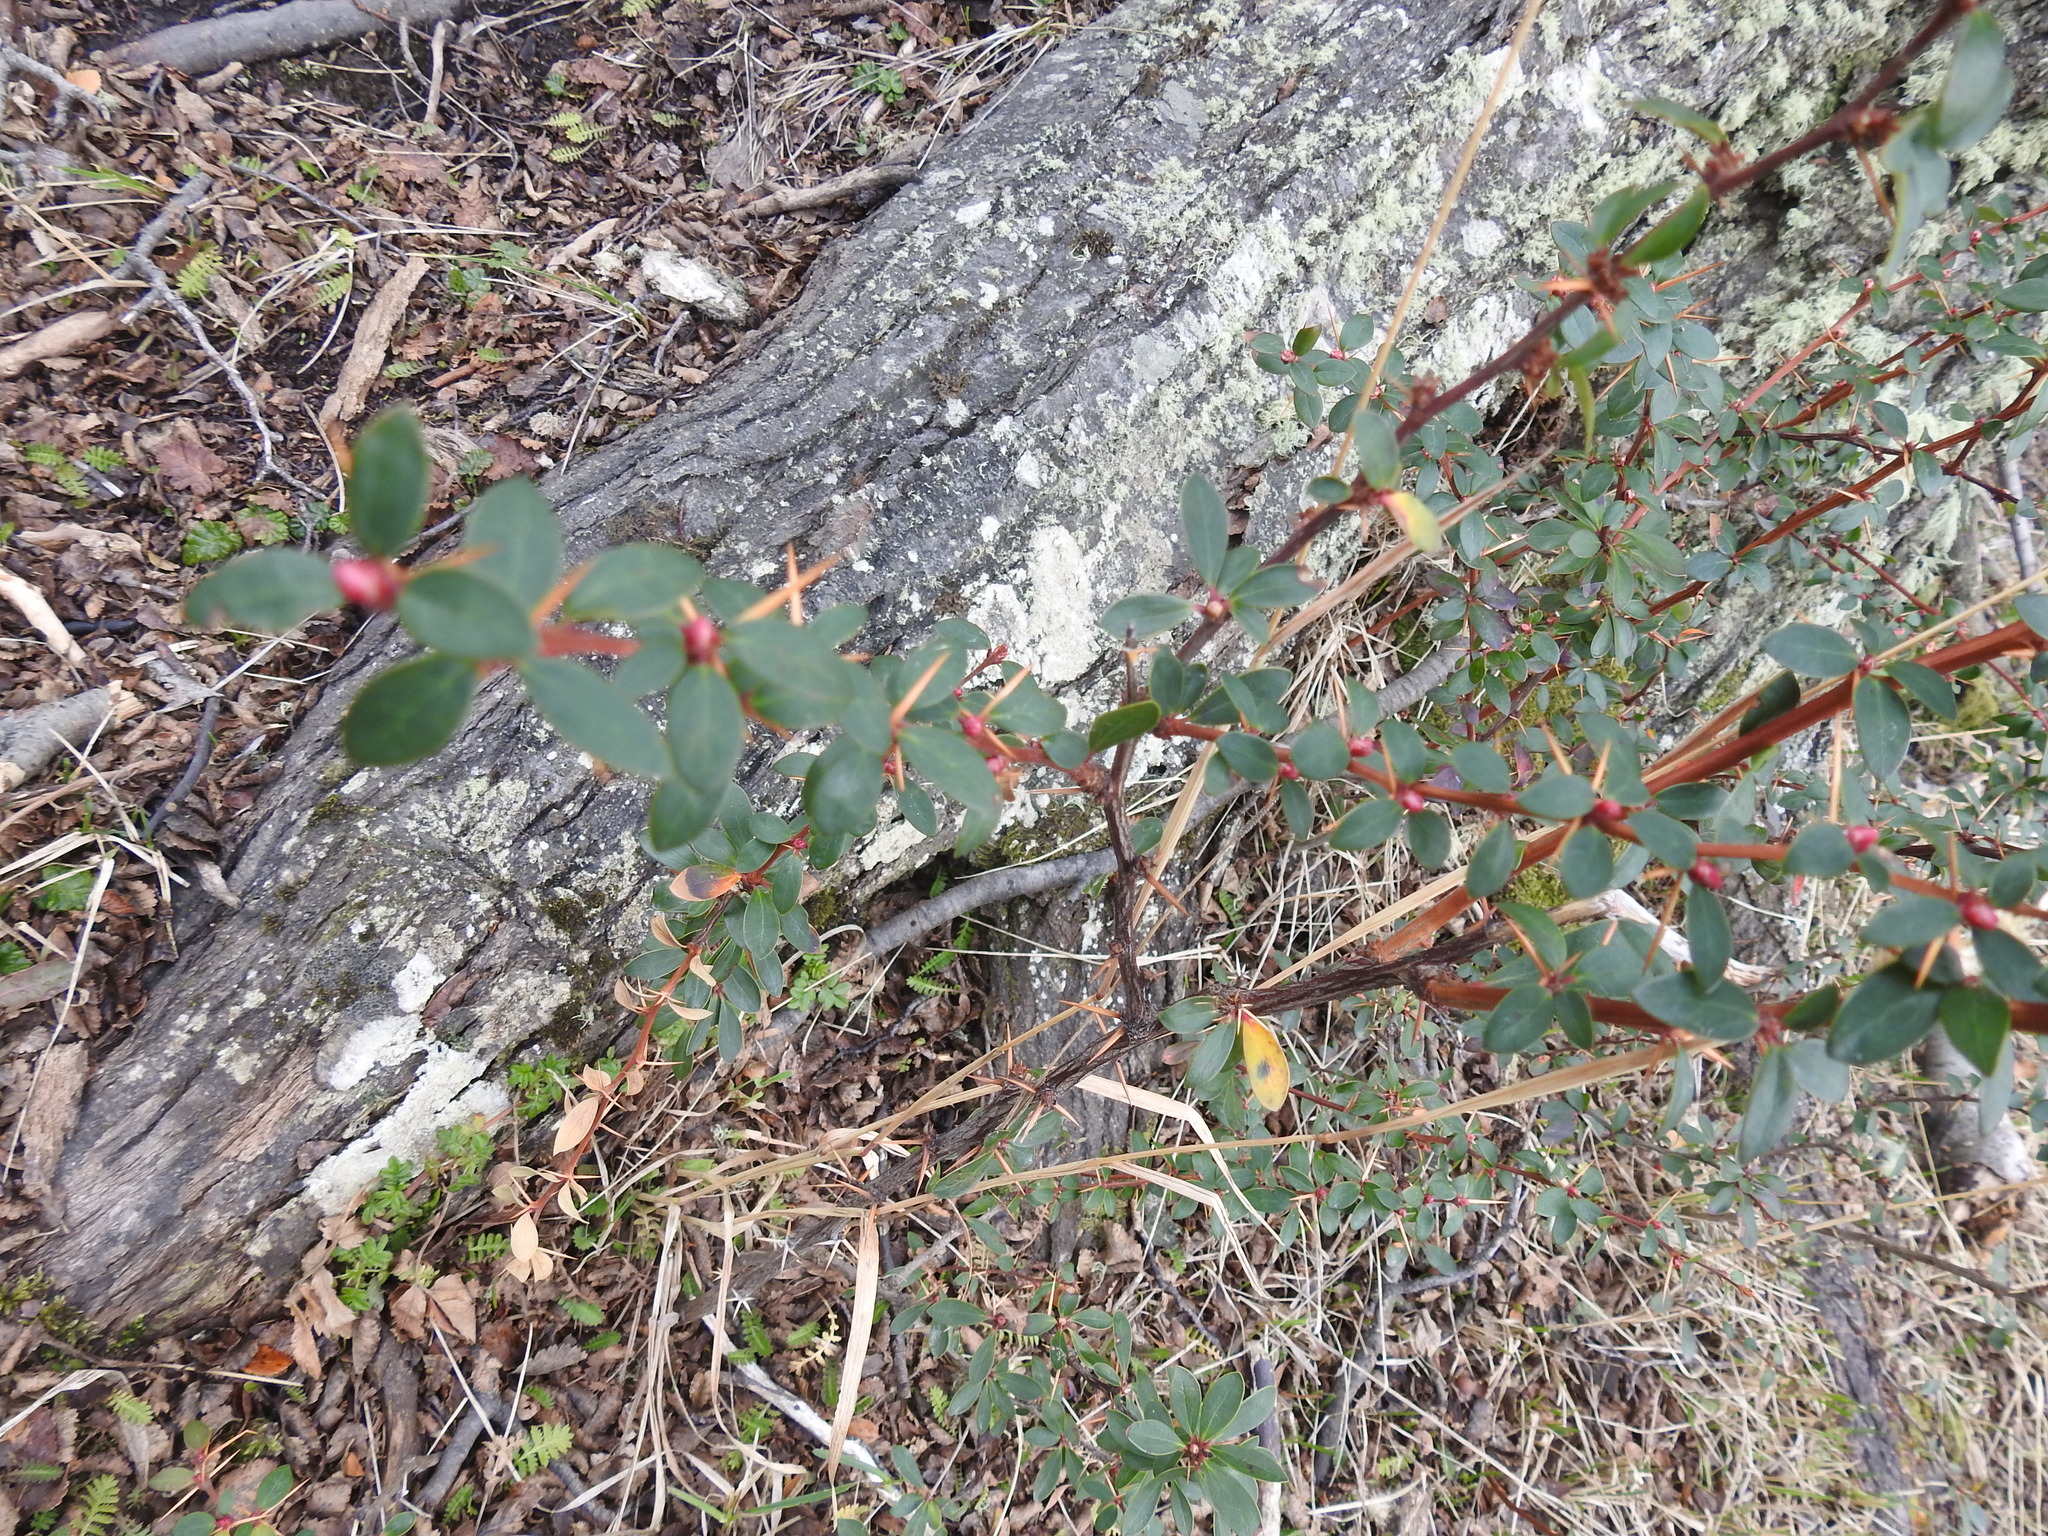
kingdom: Plantae
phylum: Tracheophyta
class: Magnoliopsida
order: Ranunculales
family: Berberidaceae
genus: Berberis
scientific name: Berberis microphylla
